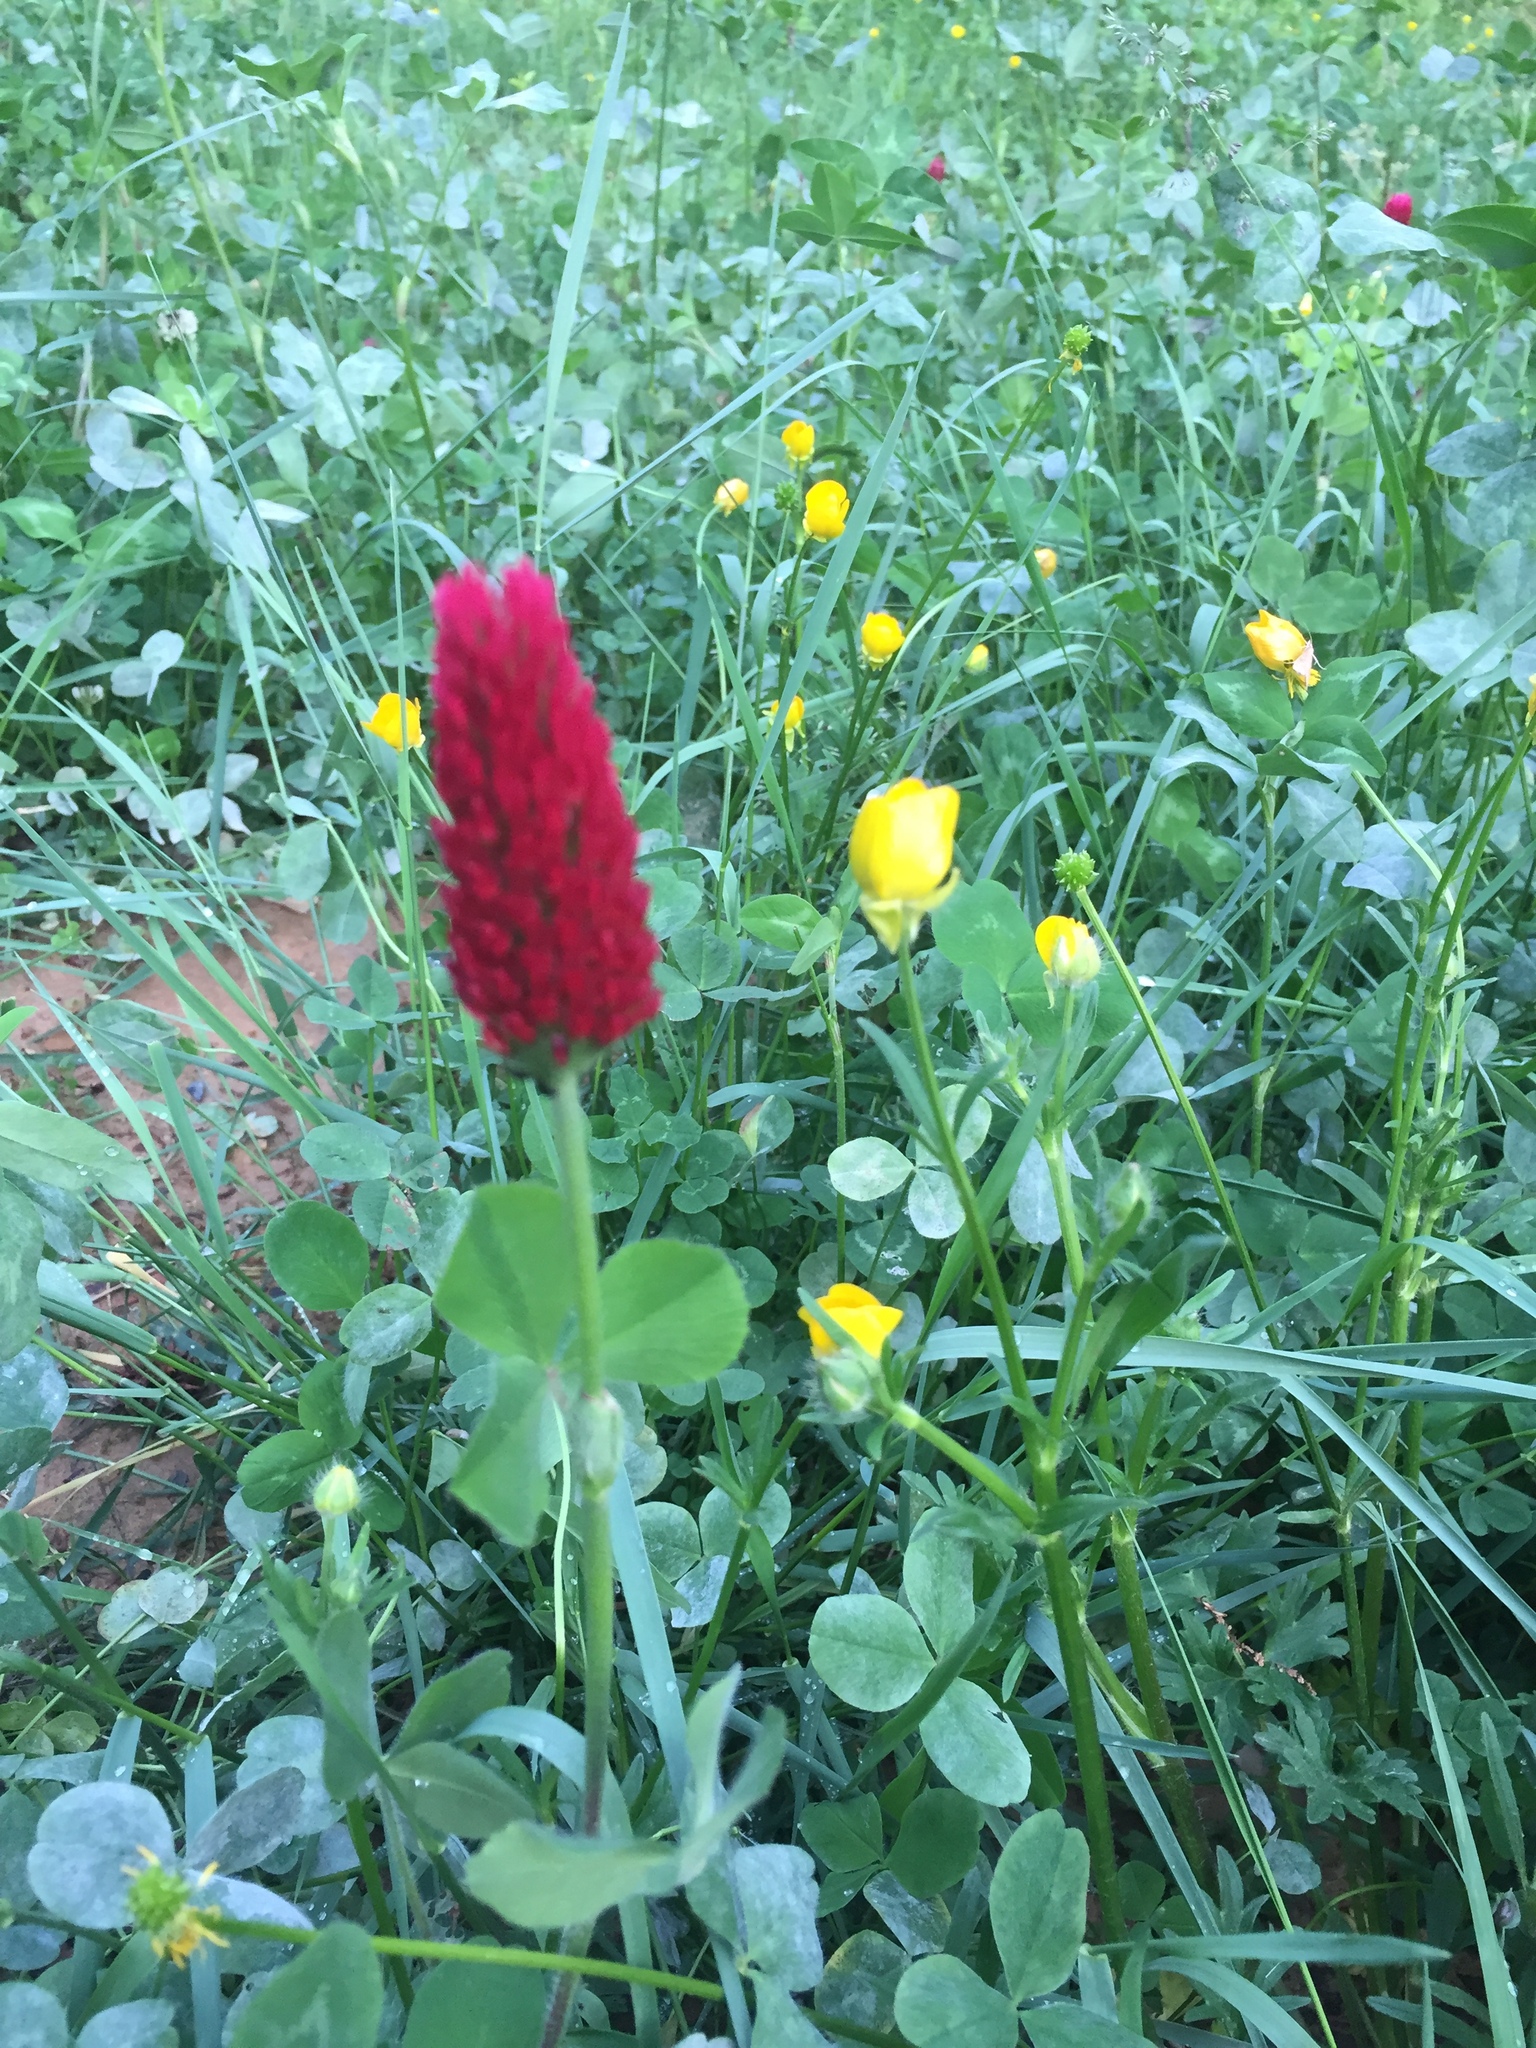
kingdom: Plantae
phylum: Tracheophyta
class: Magnoliopsida
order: Fabales
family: Fabaceae
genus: Trifolium
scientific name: Trifolium incarnatum
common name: Crimson clover
